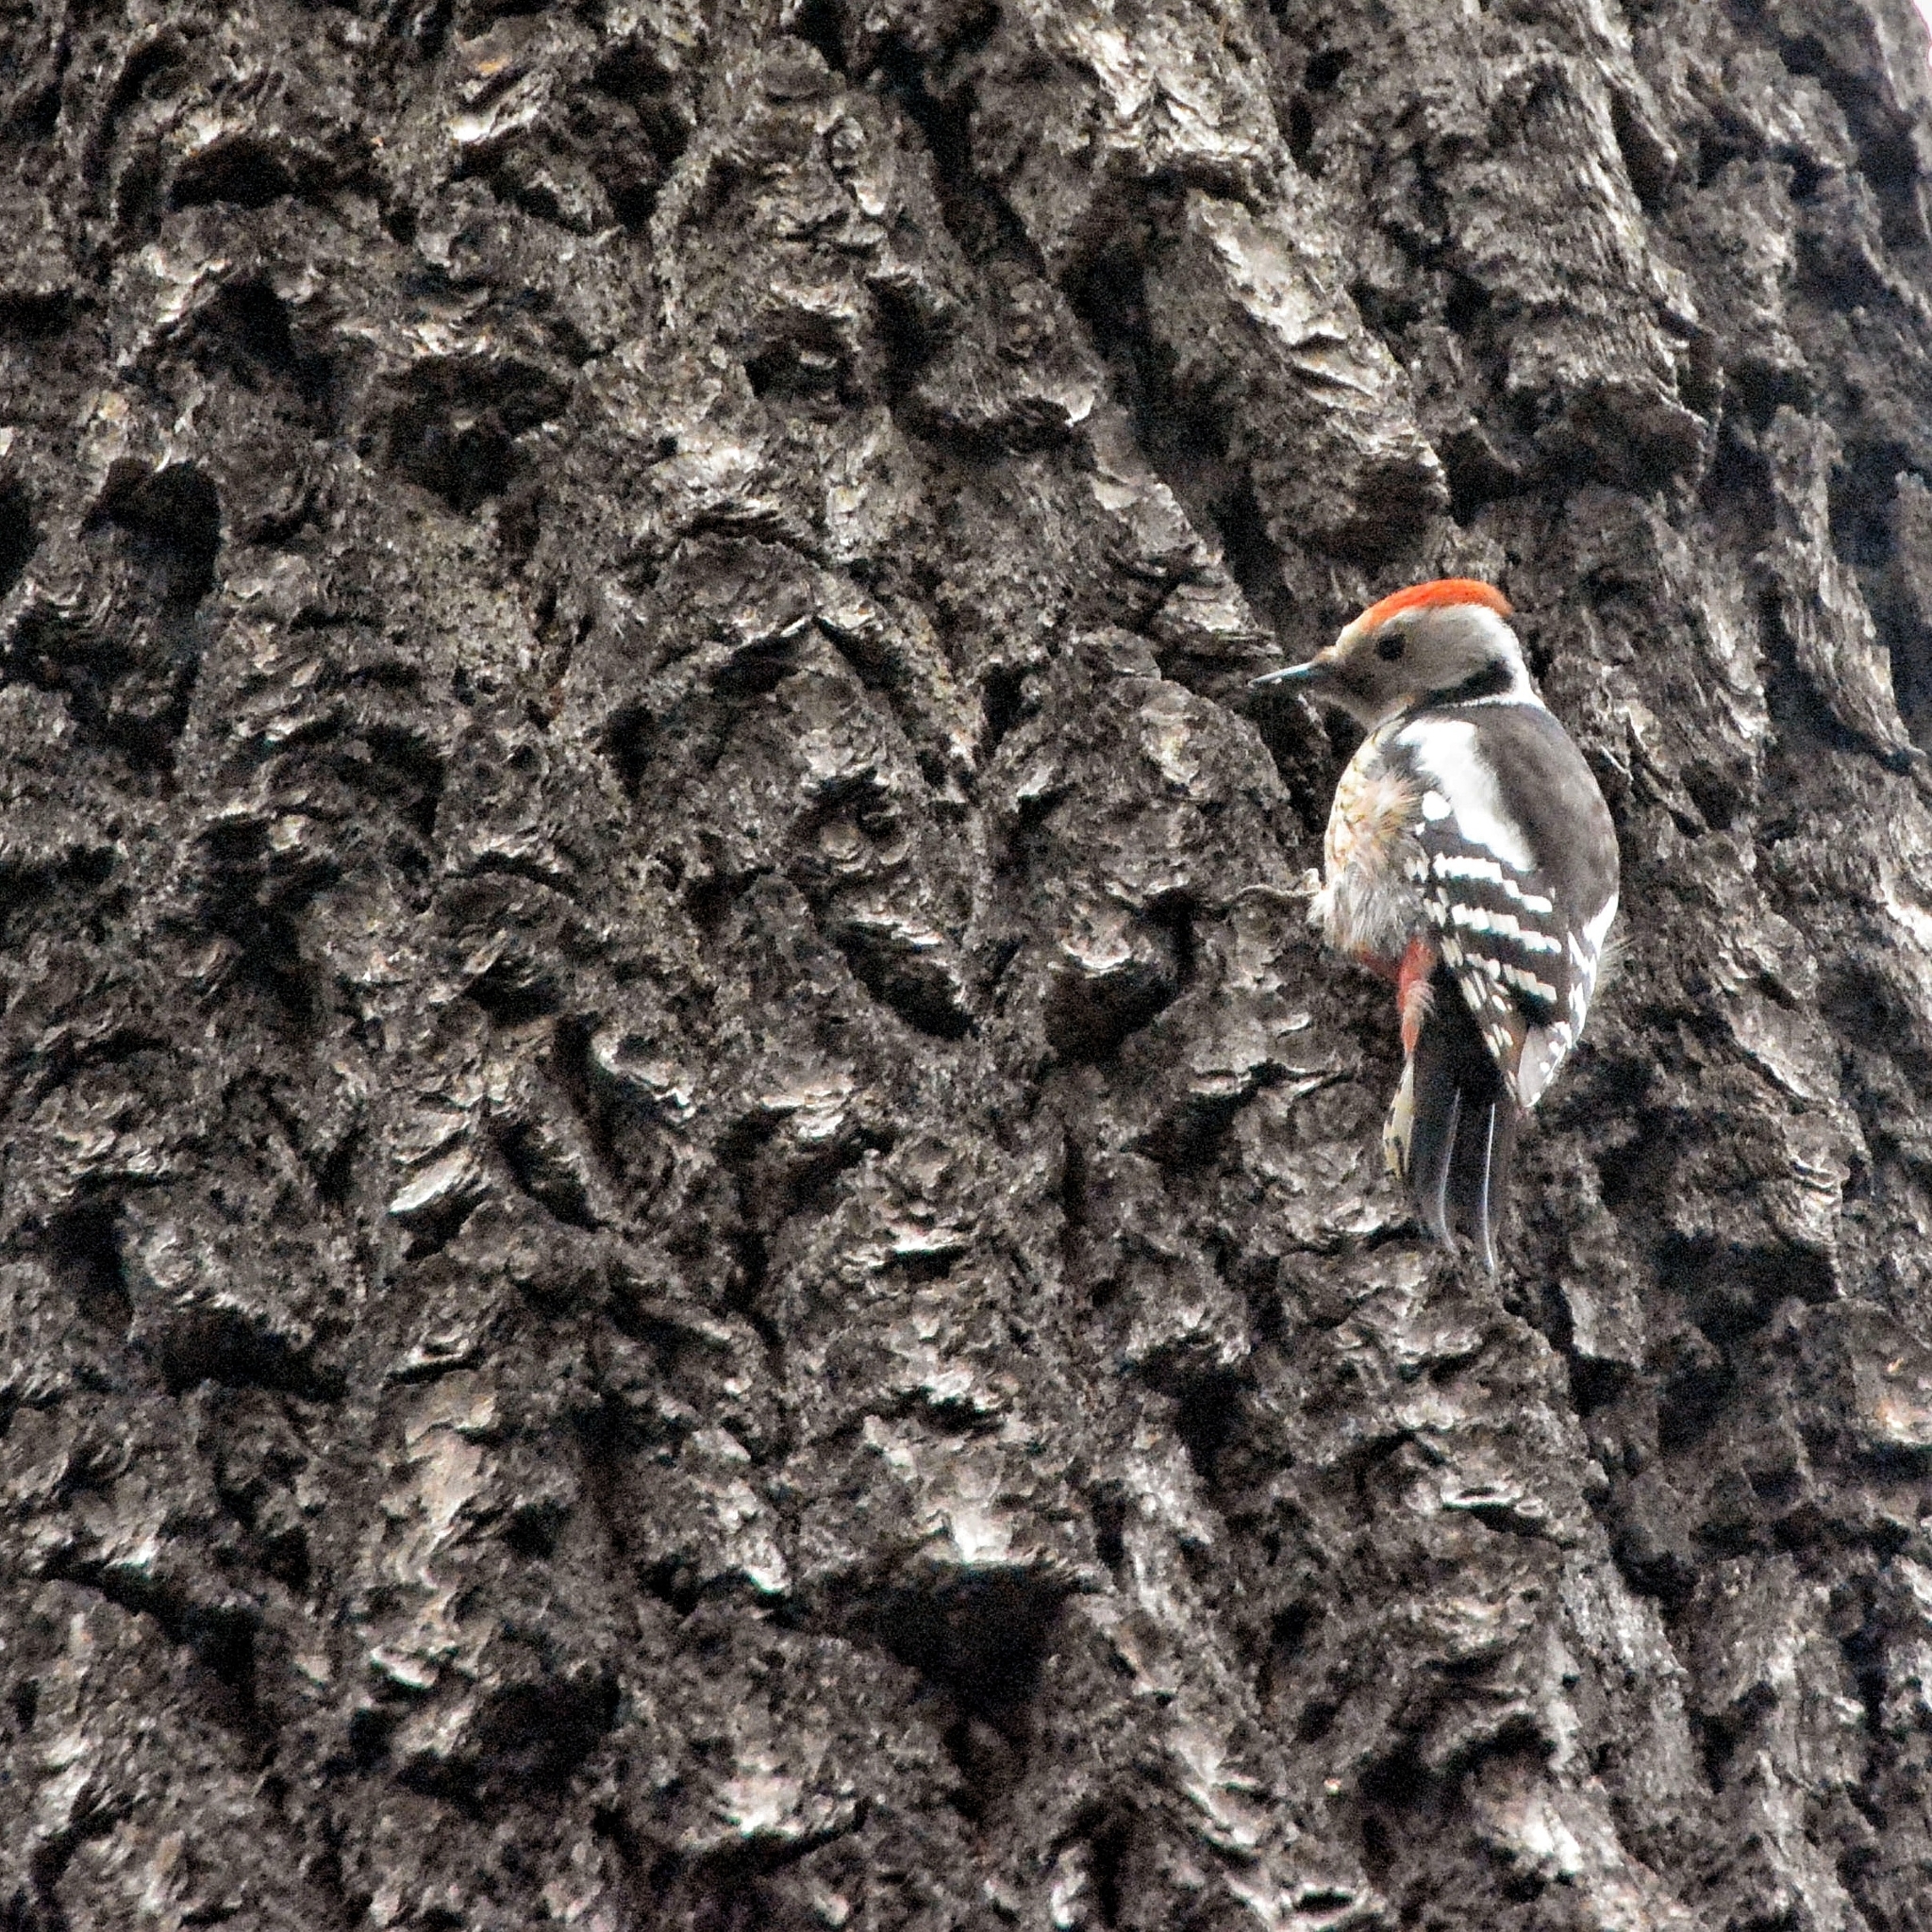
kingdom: Animalia
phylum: Chordata
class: Aves
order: Piciformes
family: Picidae
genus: Dendrocoptes
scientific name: Dendrocoptes medius
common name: Middle spotted woodpecker
